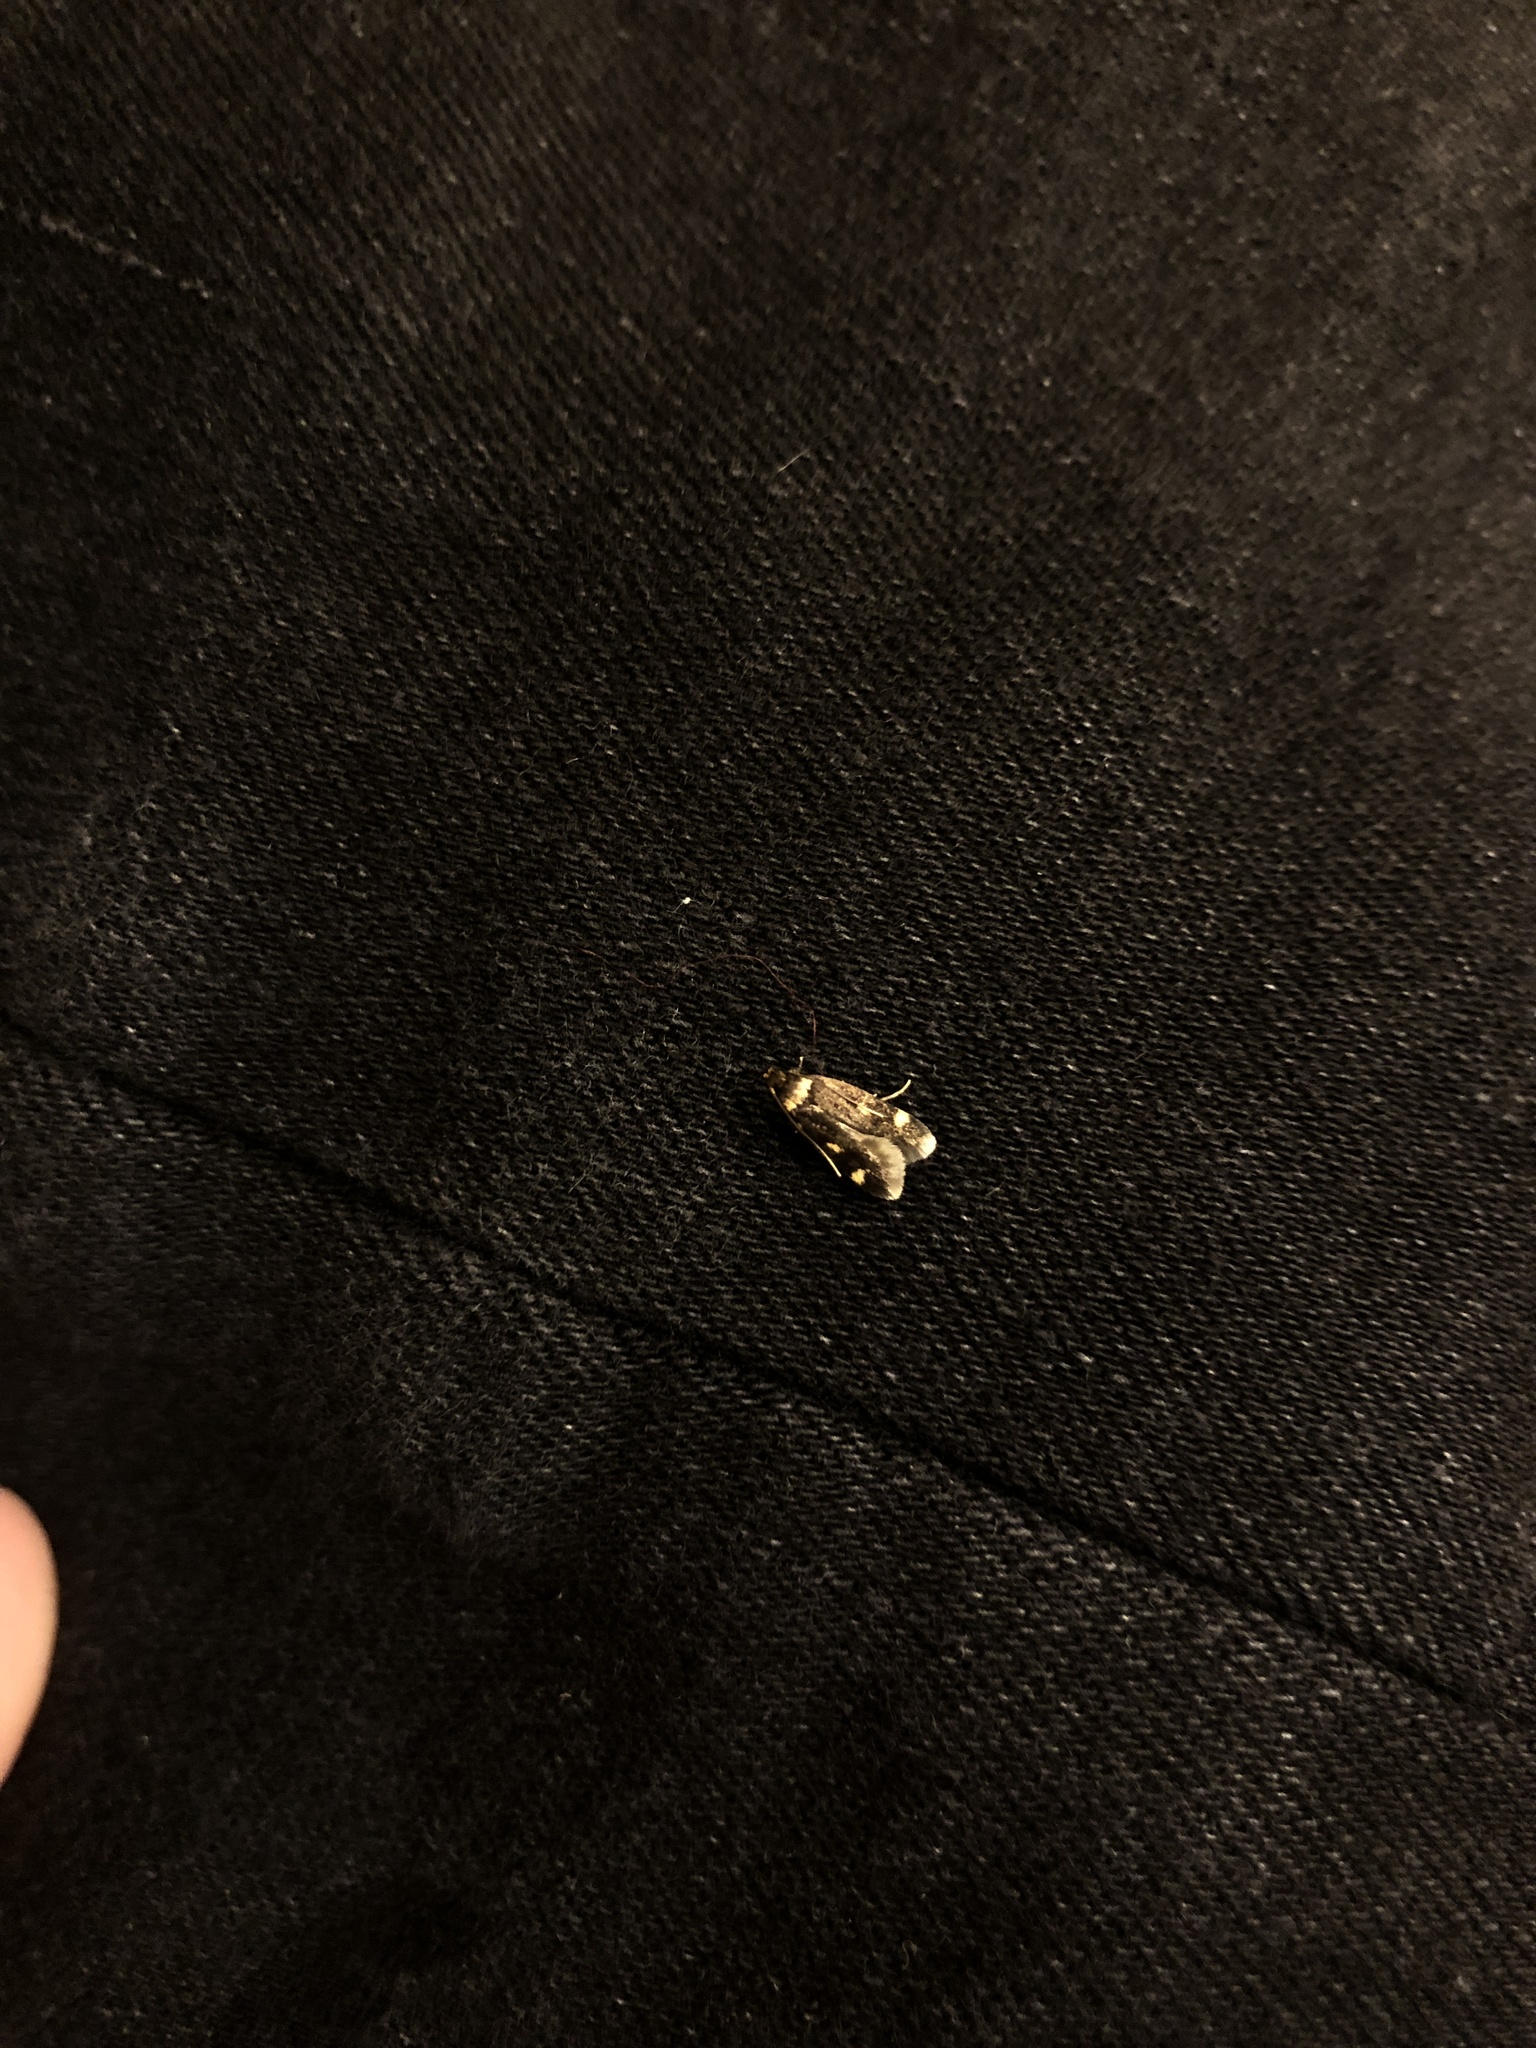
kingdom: Animalia
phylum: Arthropoda
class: Insecta
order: Lepidoptera
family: Autostichidae
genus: Oegoconia
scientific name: Oegoconia quadripuncta
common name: Four-spotted obscure
